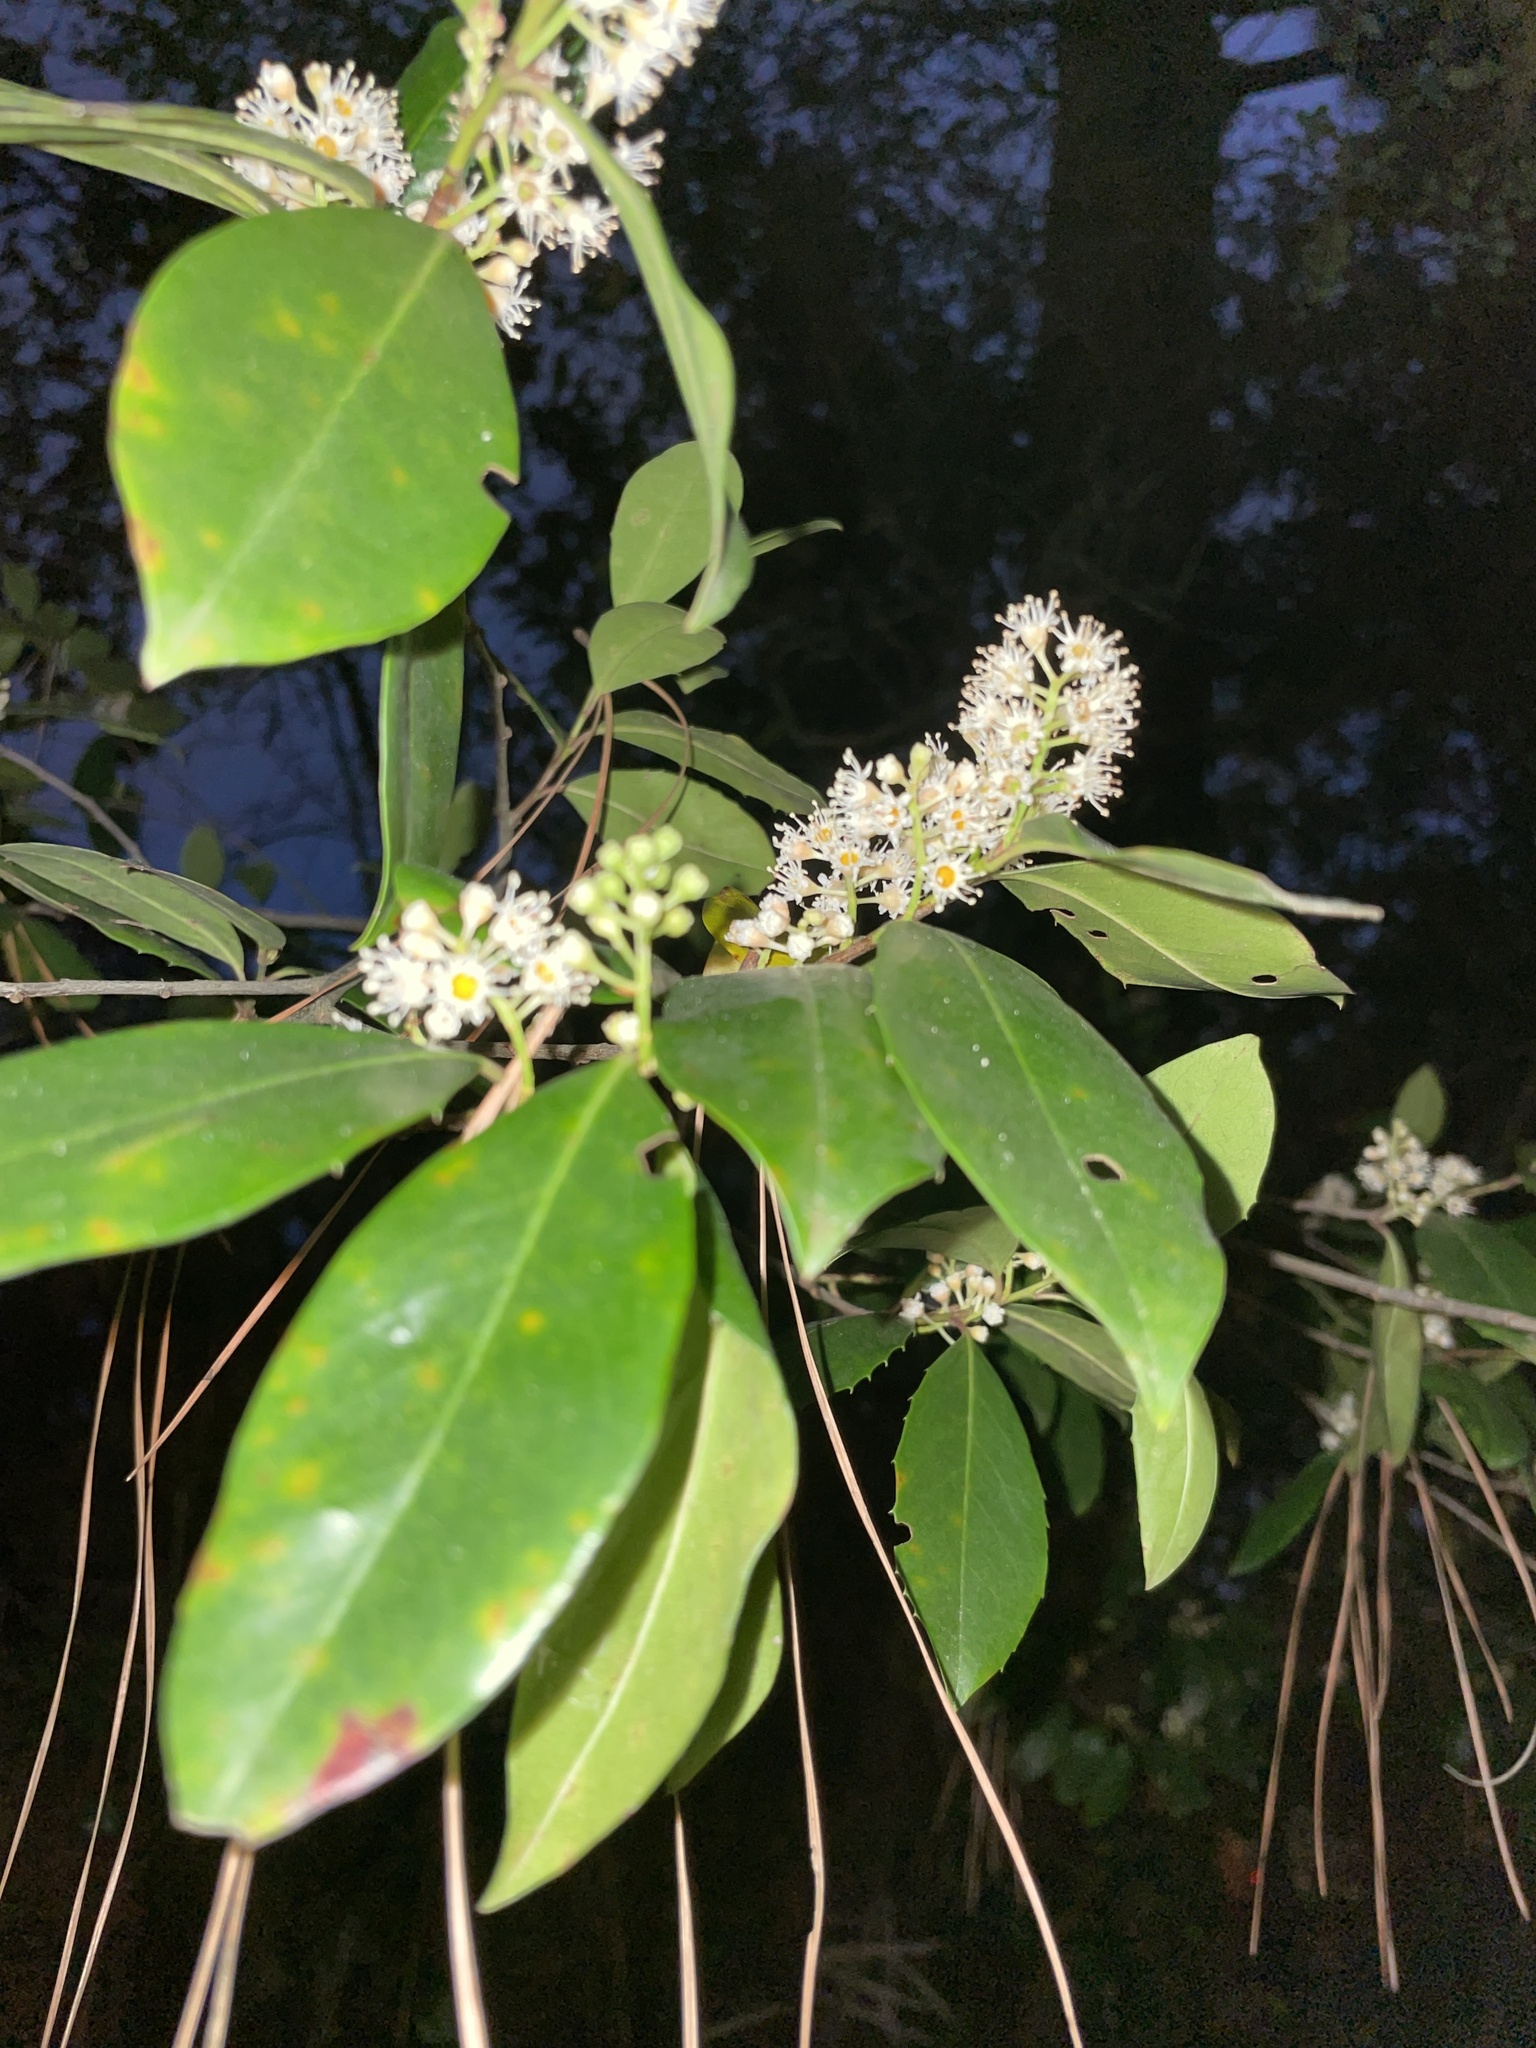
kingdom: Plantae
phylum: Tracheophyta
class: Magnoliopsida
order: Rosales
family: Rosaceae
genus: Prunus
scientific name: Prunus caroliniana
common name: Carolina laurel cherry
